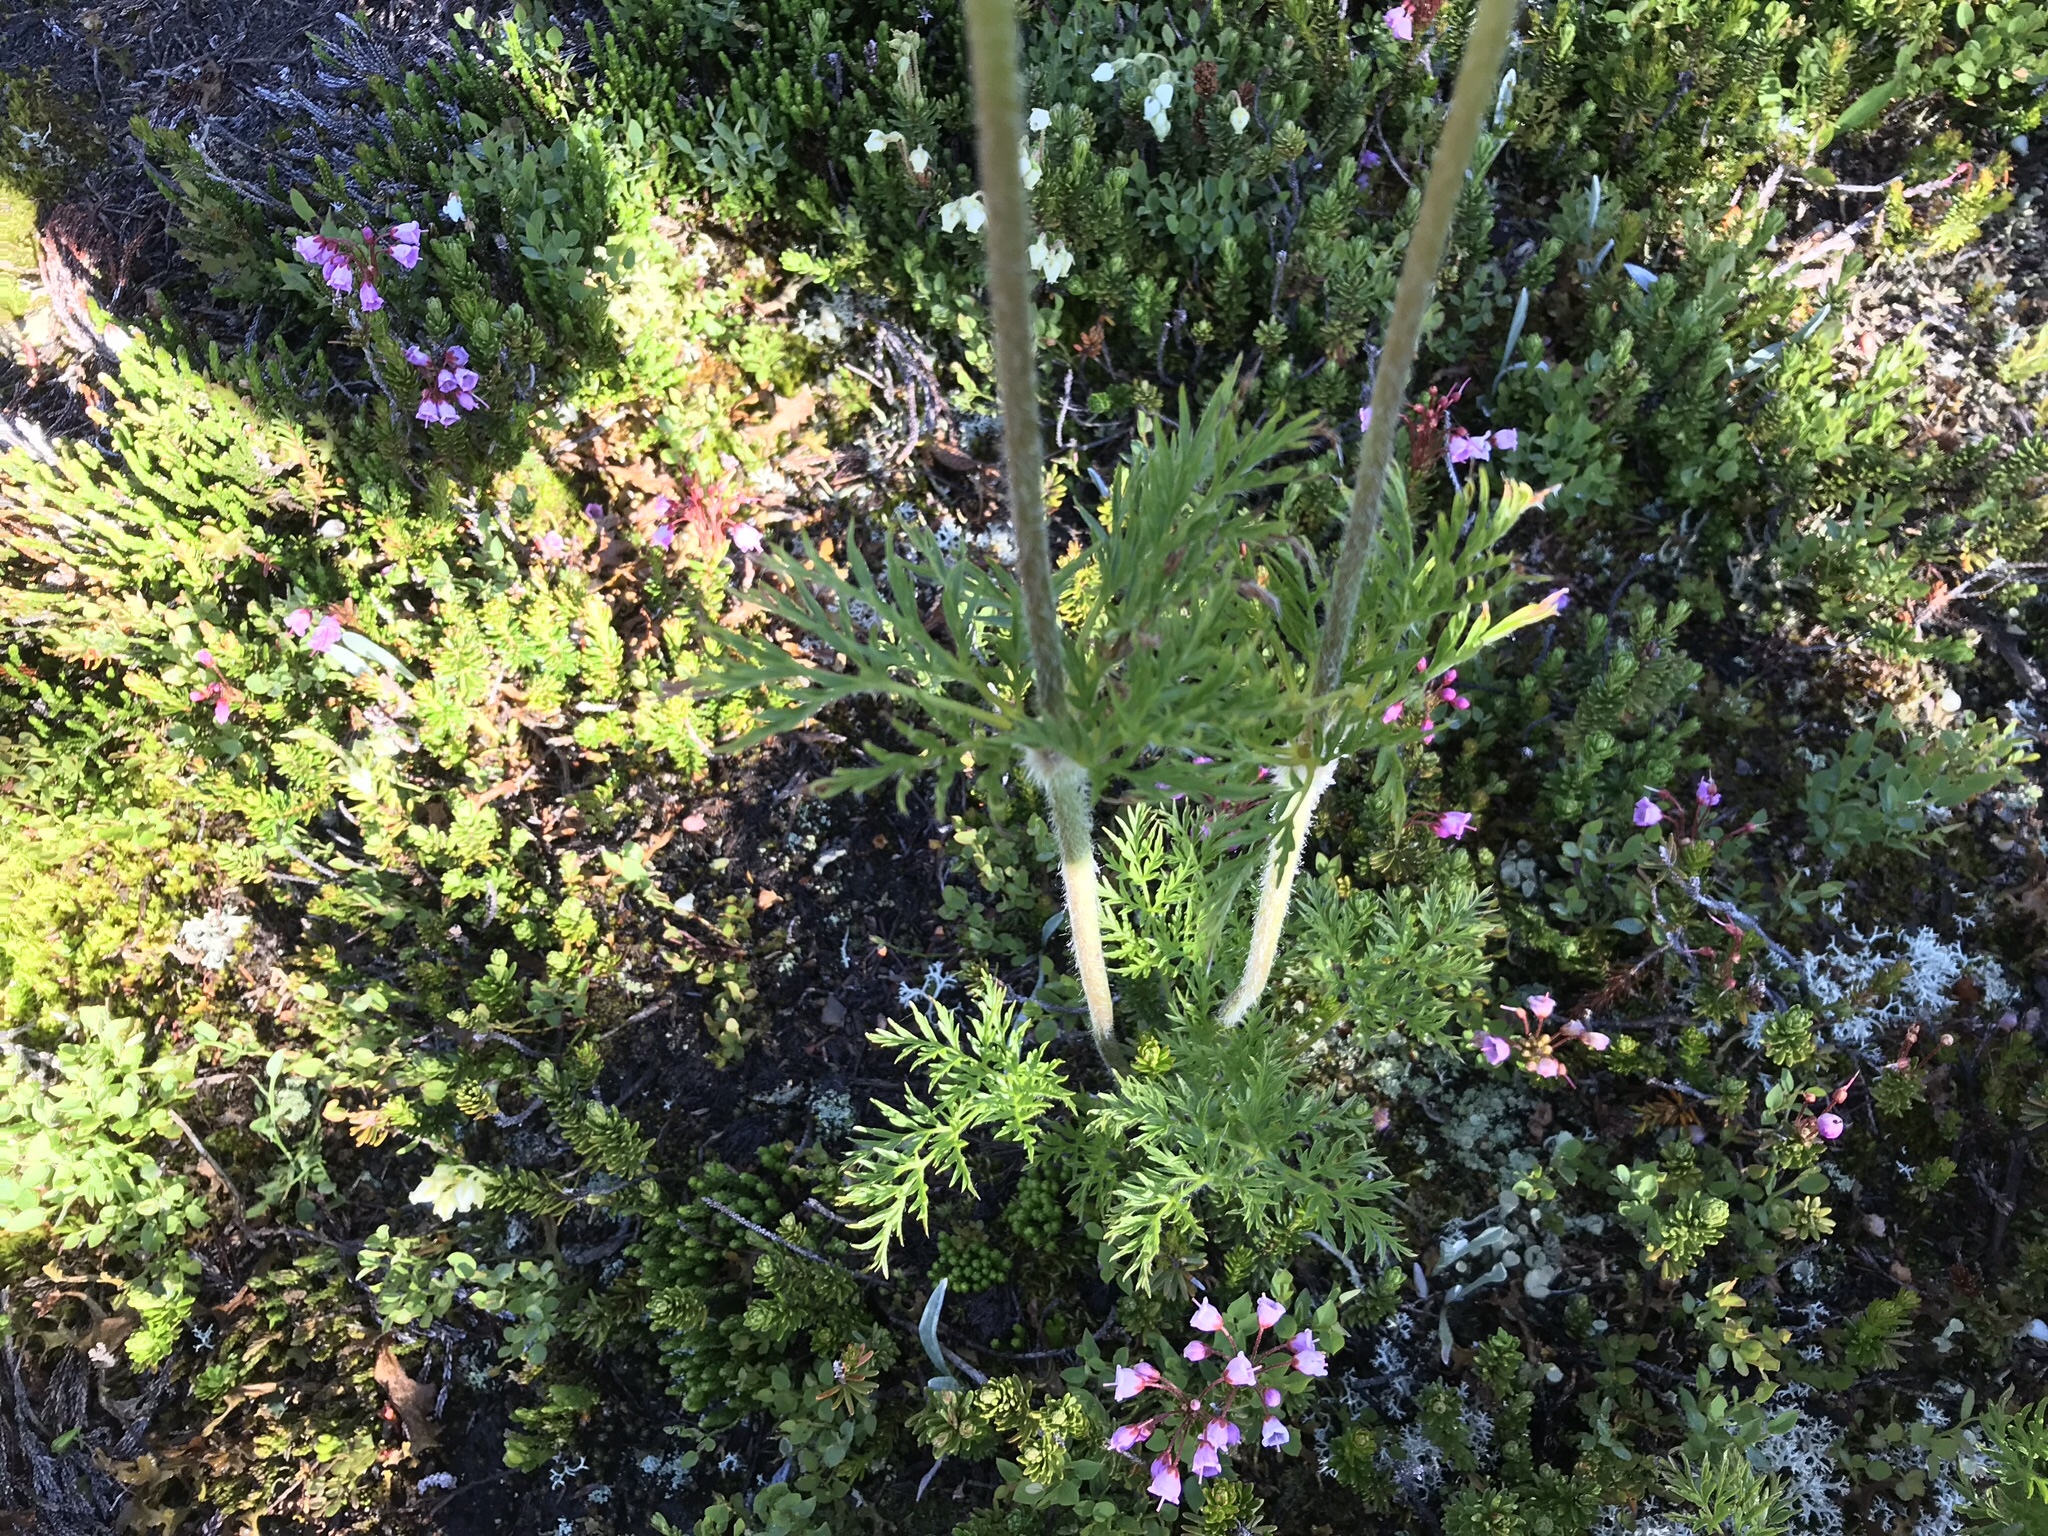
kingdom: Plantae
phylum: Tracheophyta
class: Magnoliopsida
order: Ranunculales
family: Ranunculaceae
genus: Pulsatilla
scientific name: Pulsatilla occidentalis
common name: Mountain pasqueflower
